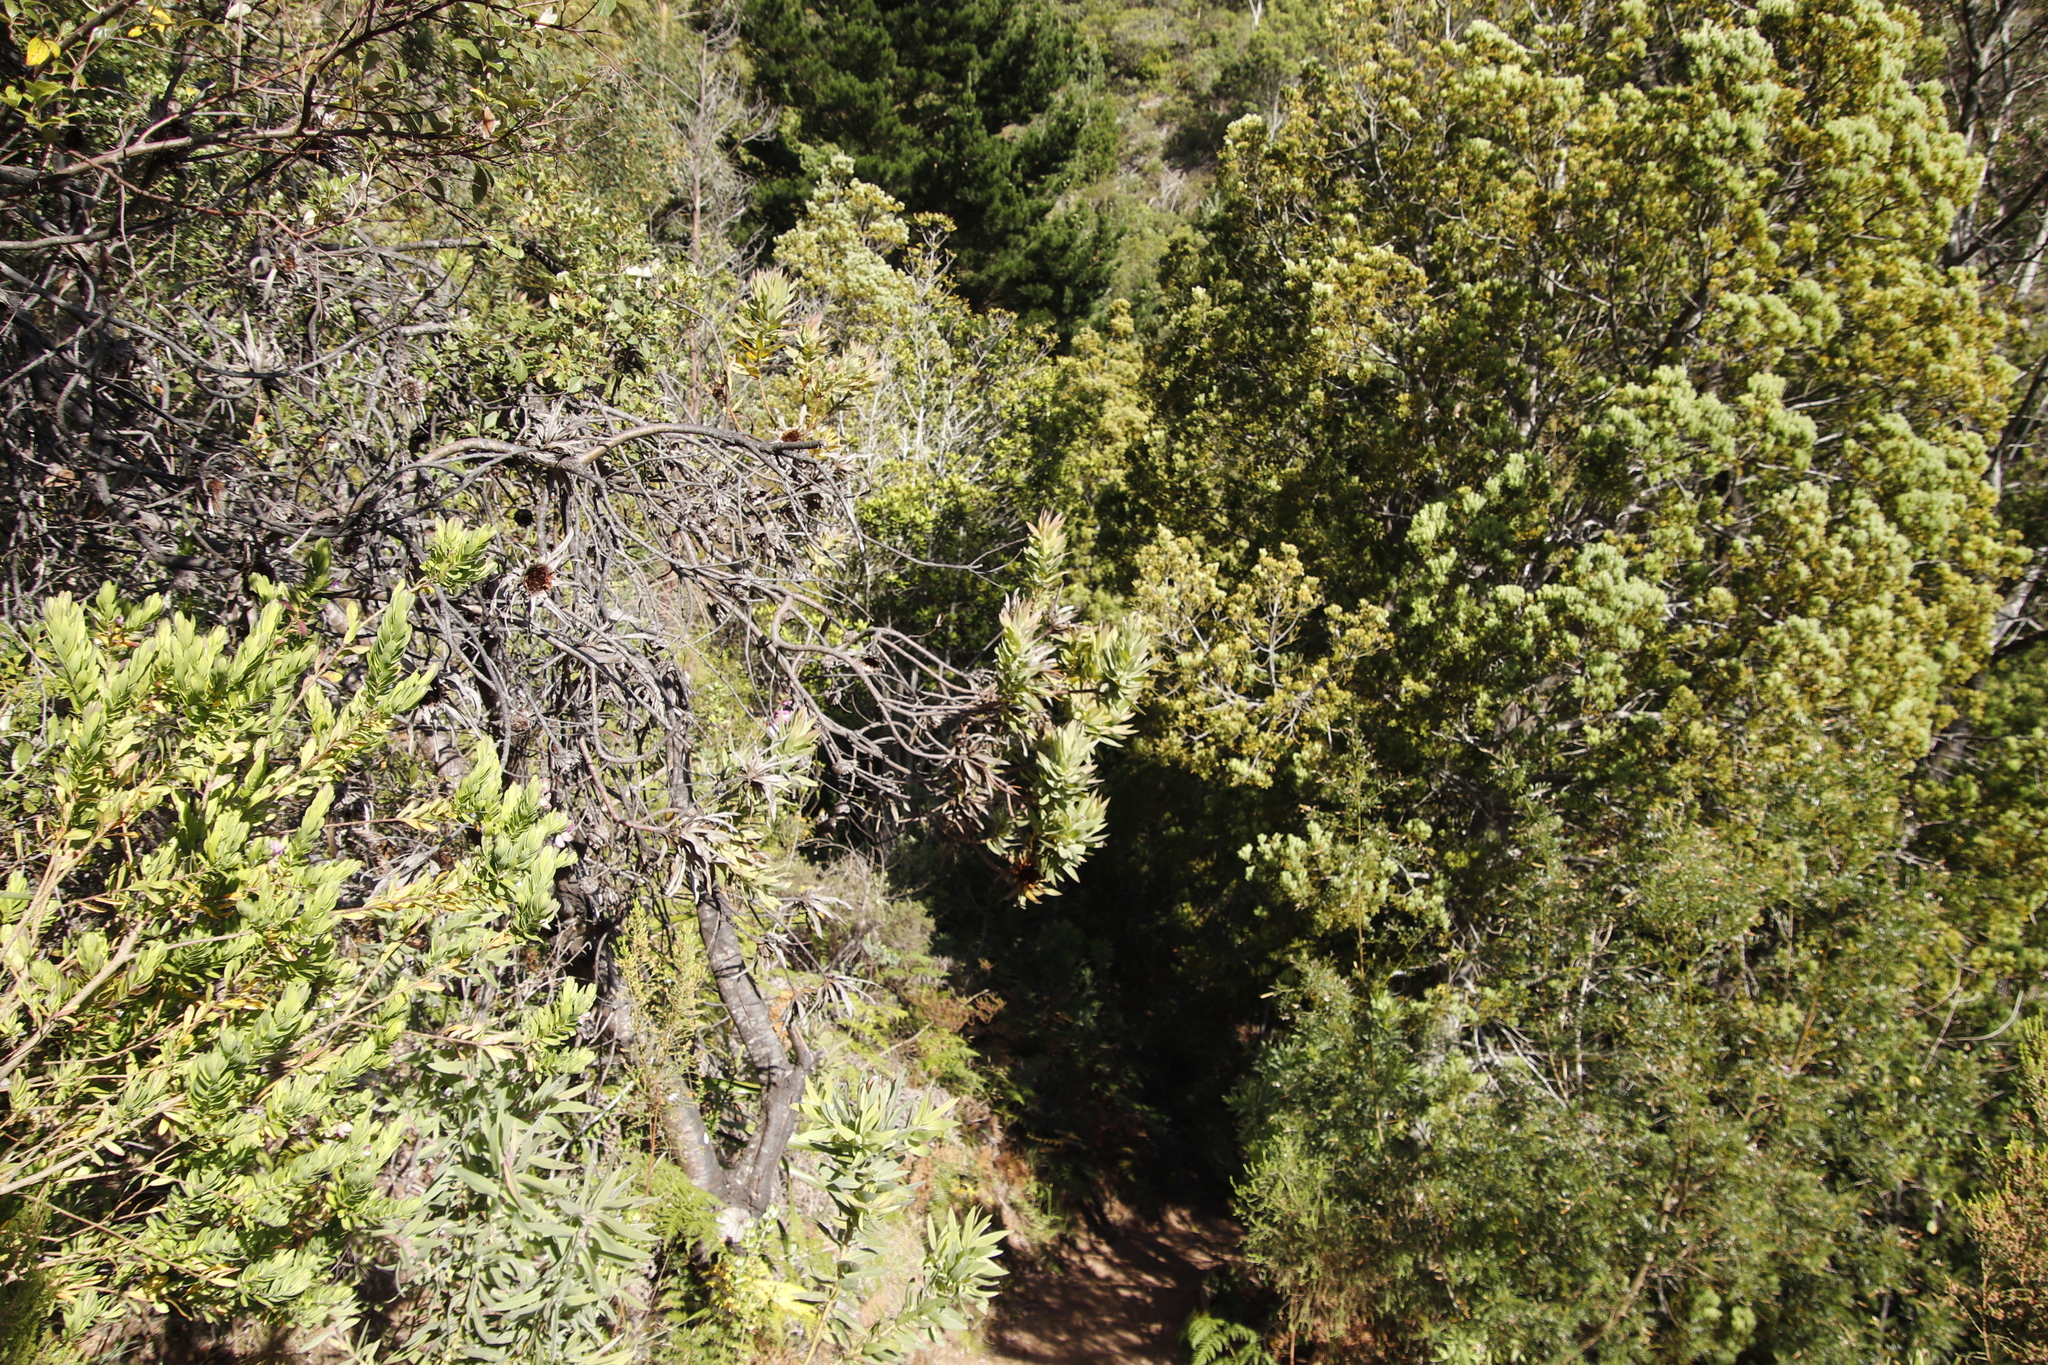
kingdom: Plantae
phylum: Tracheophyta
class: Magnoliopsida
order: Proteales
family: Proteaceae
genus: Protea
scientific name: Protea coronata
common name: Green sugarbush
